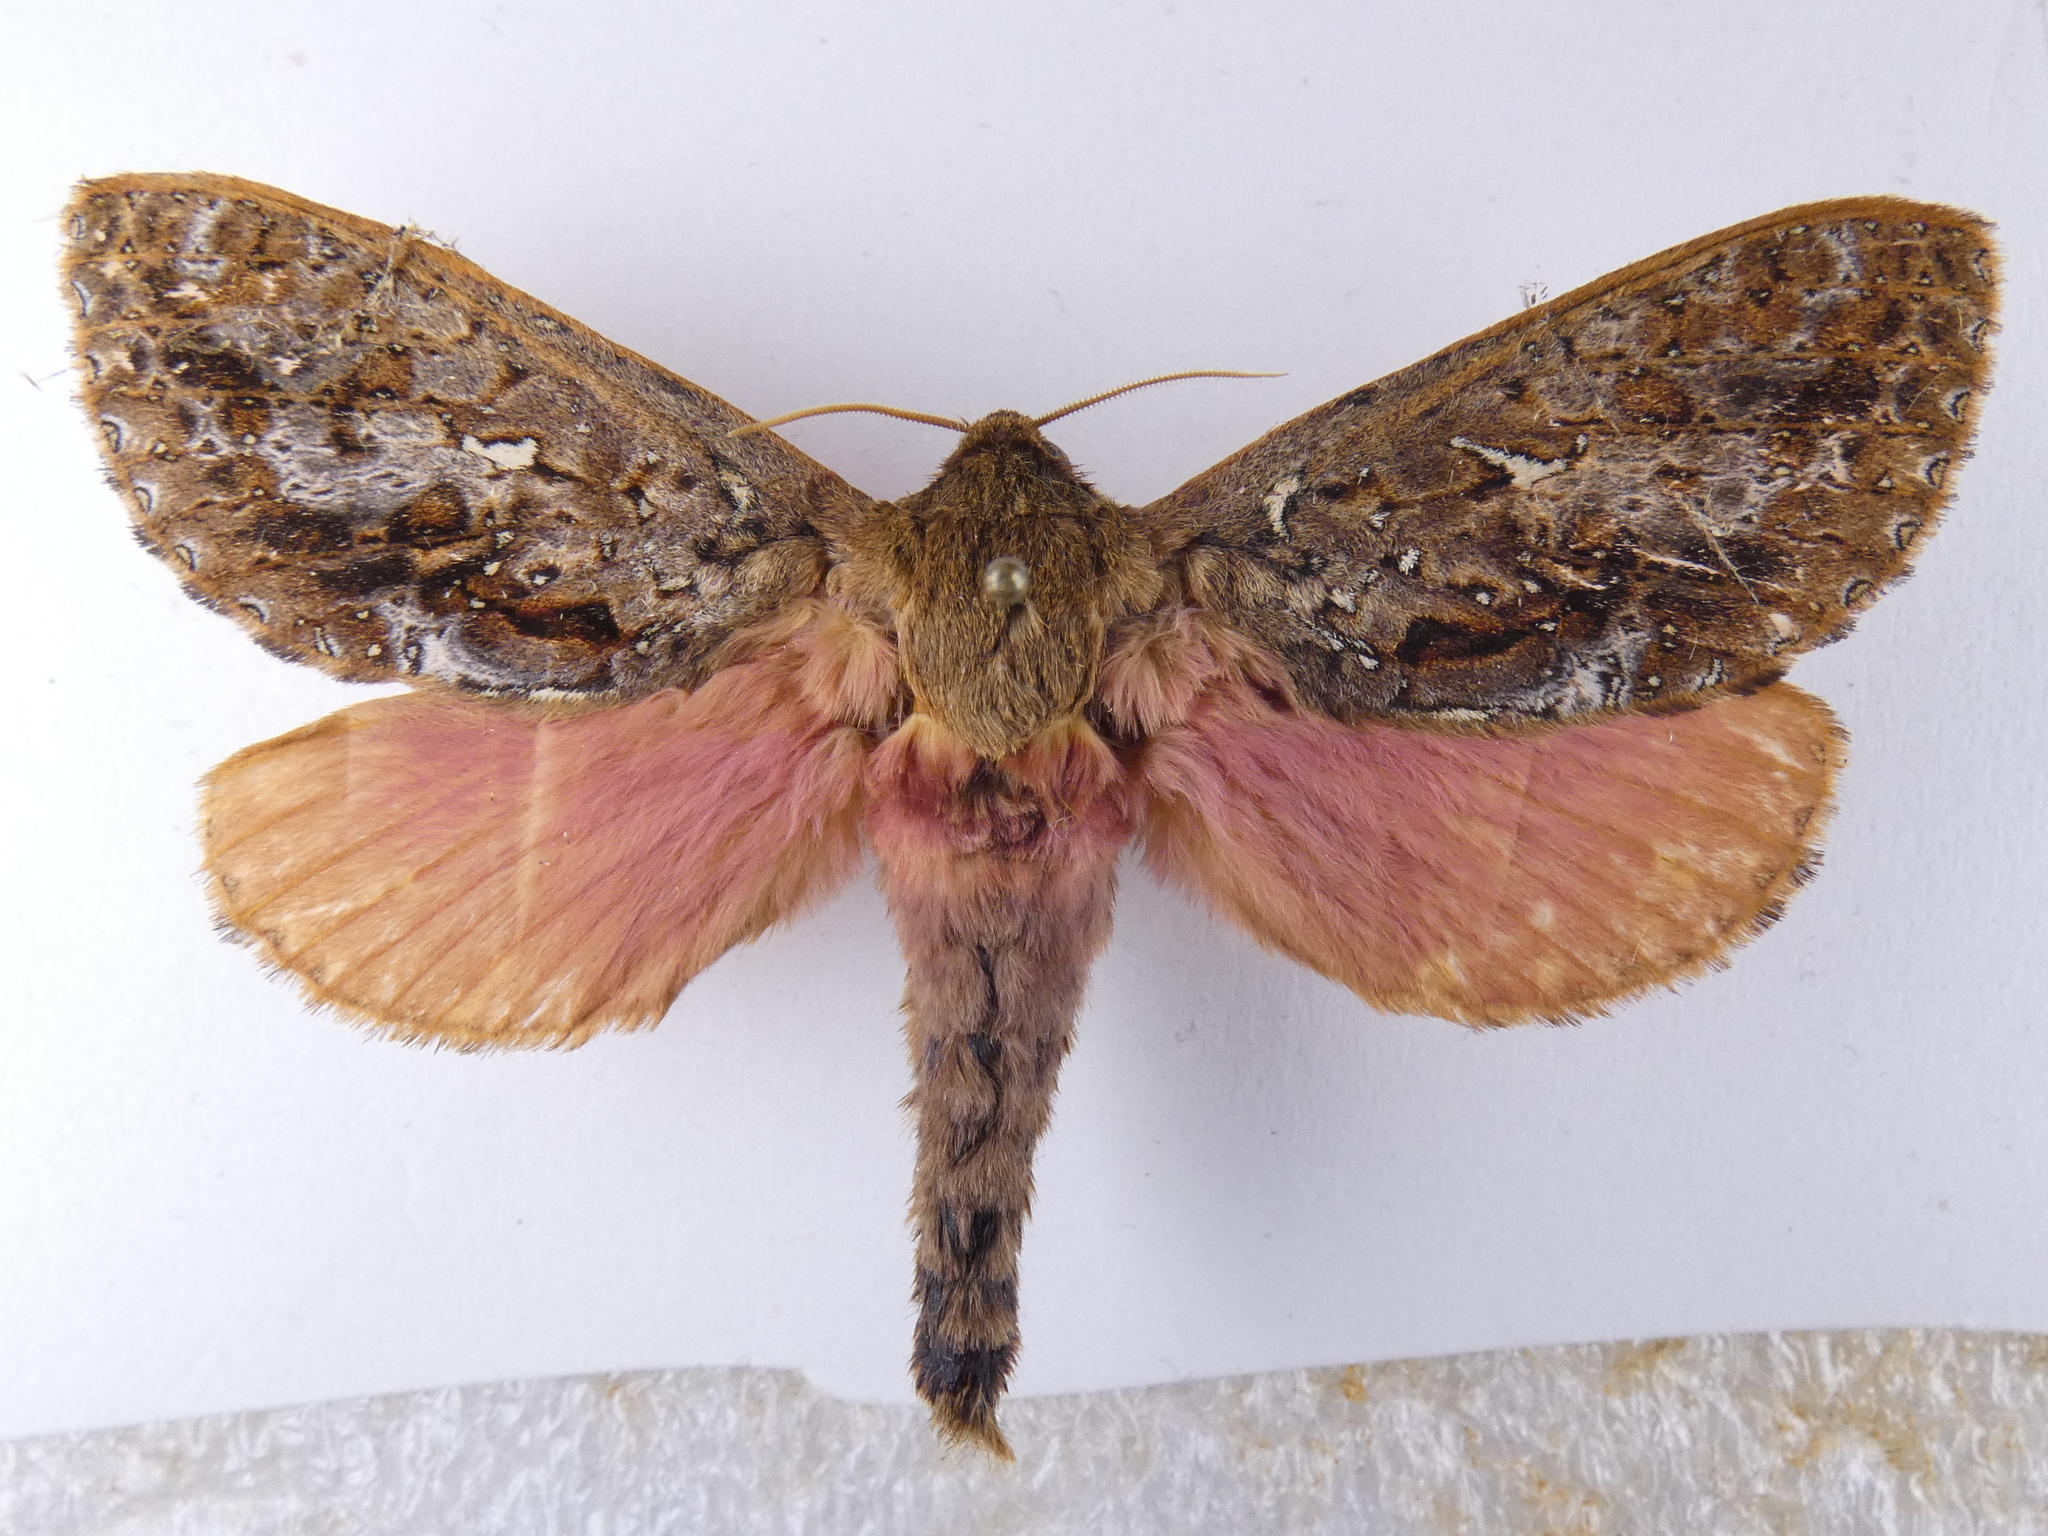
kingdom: Animalia
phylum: Arthropoda
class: Insecta
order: Lepidoptera
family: Hepialidae
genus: Dumbletonius
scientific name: Dumbletonius unimaculata
